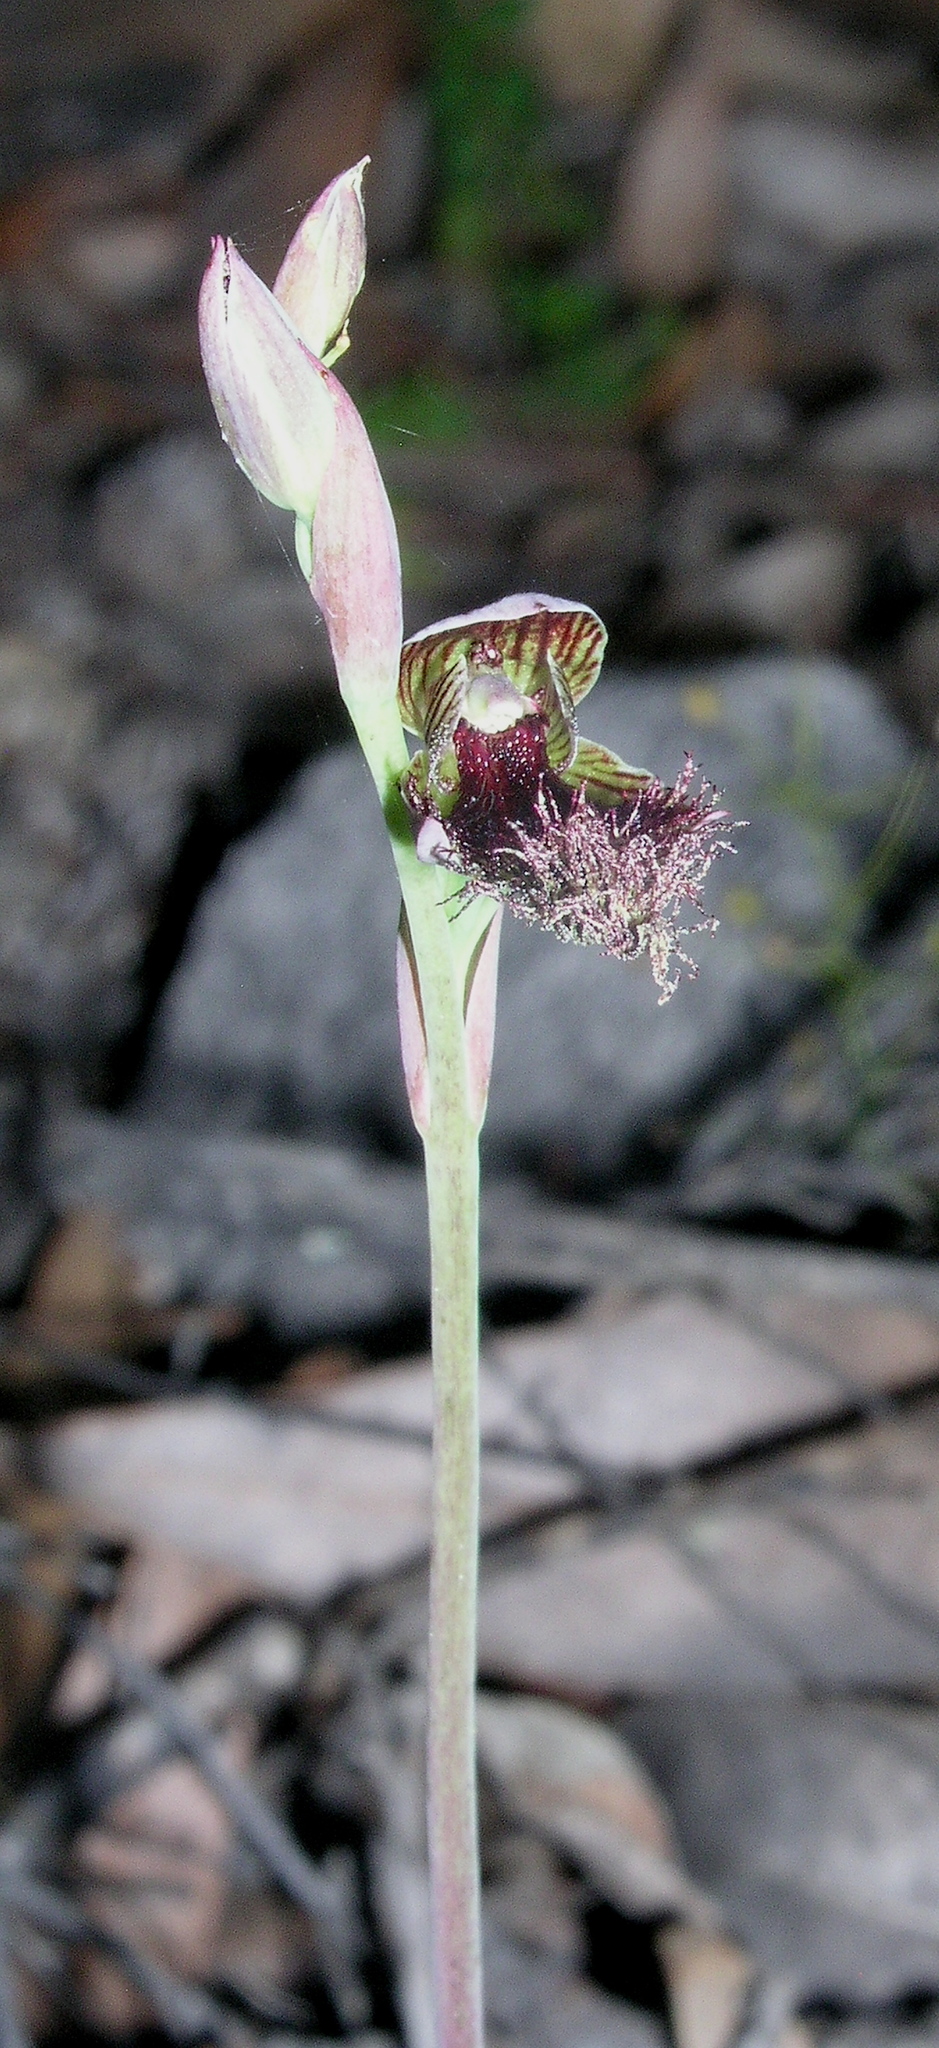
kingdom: Plantae
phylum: Tracheophyta
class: Liliopsida
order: Asparagales
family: Orchidaceae
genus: Calochilus
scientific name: Calochilus uliginosus
